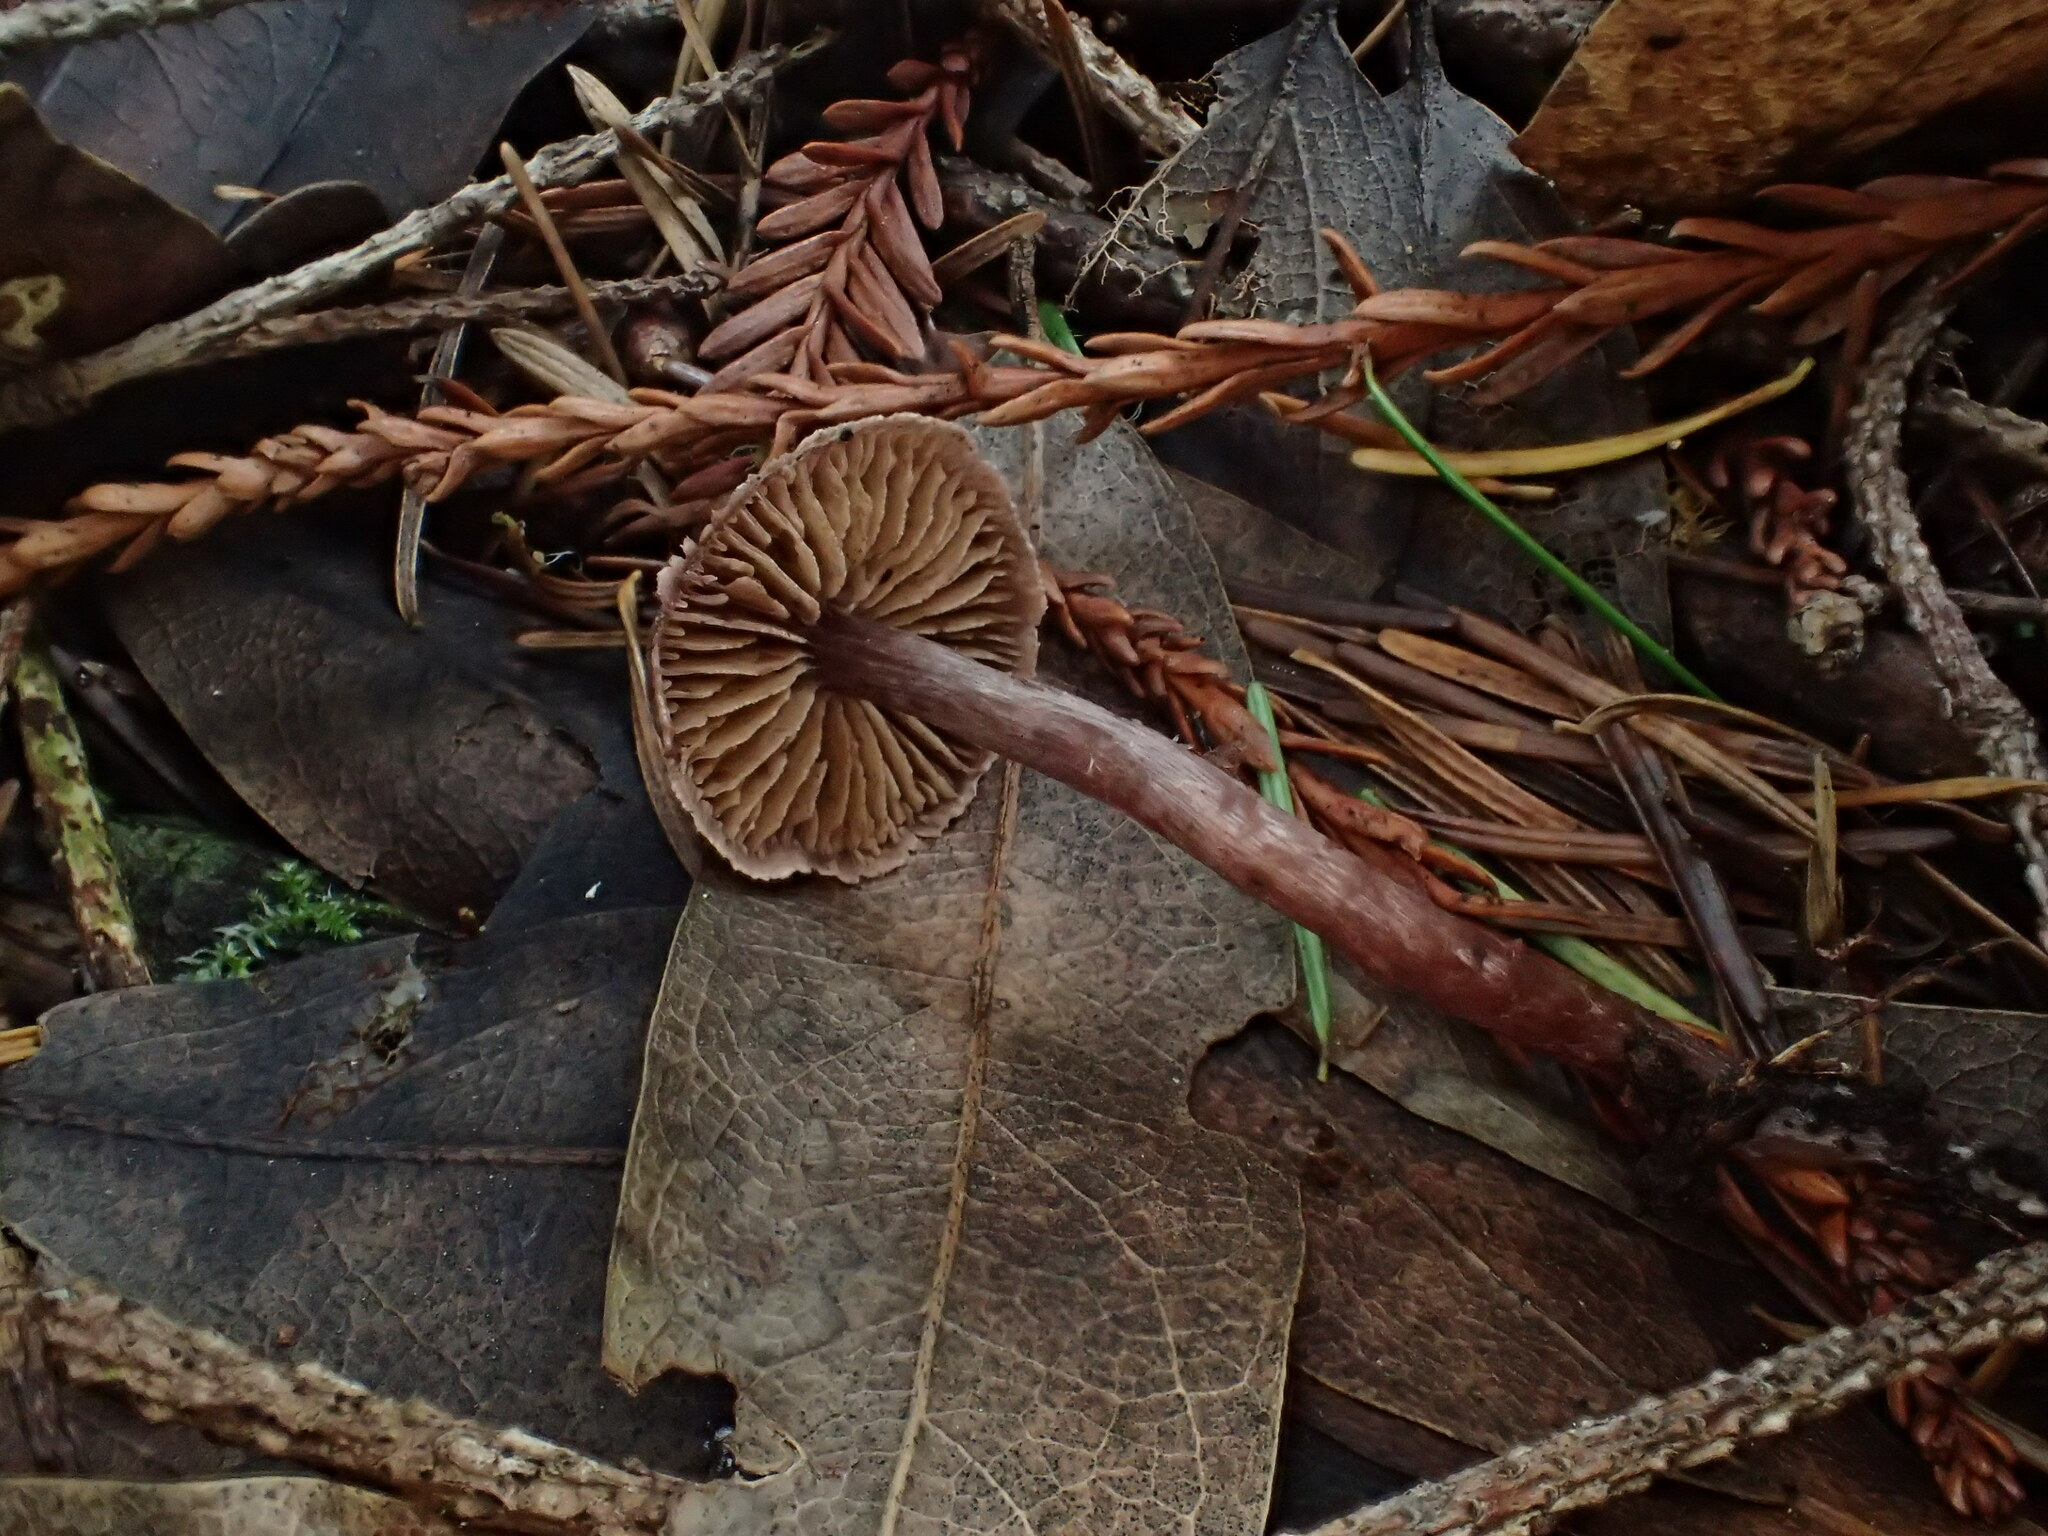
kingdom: Fungi
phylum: Basidiomycota
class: Agaricomycetes
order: Agaricales
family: Tricholomataceae
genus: Pseudobaeospora
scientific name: Pseudobaeospora deckeri
